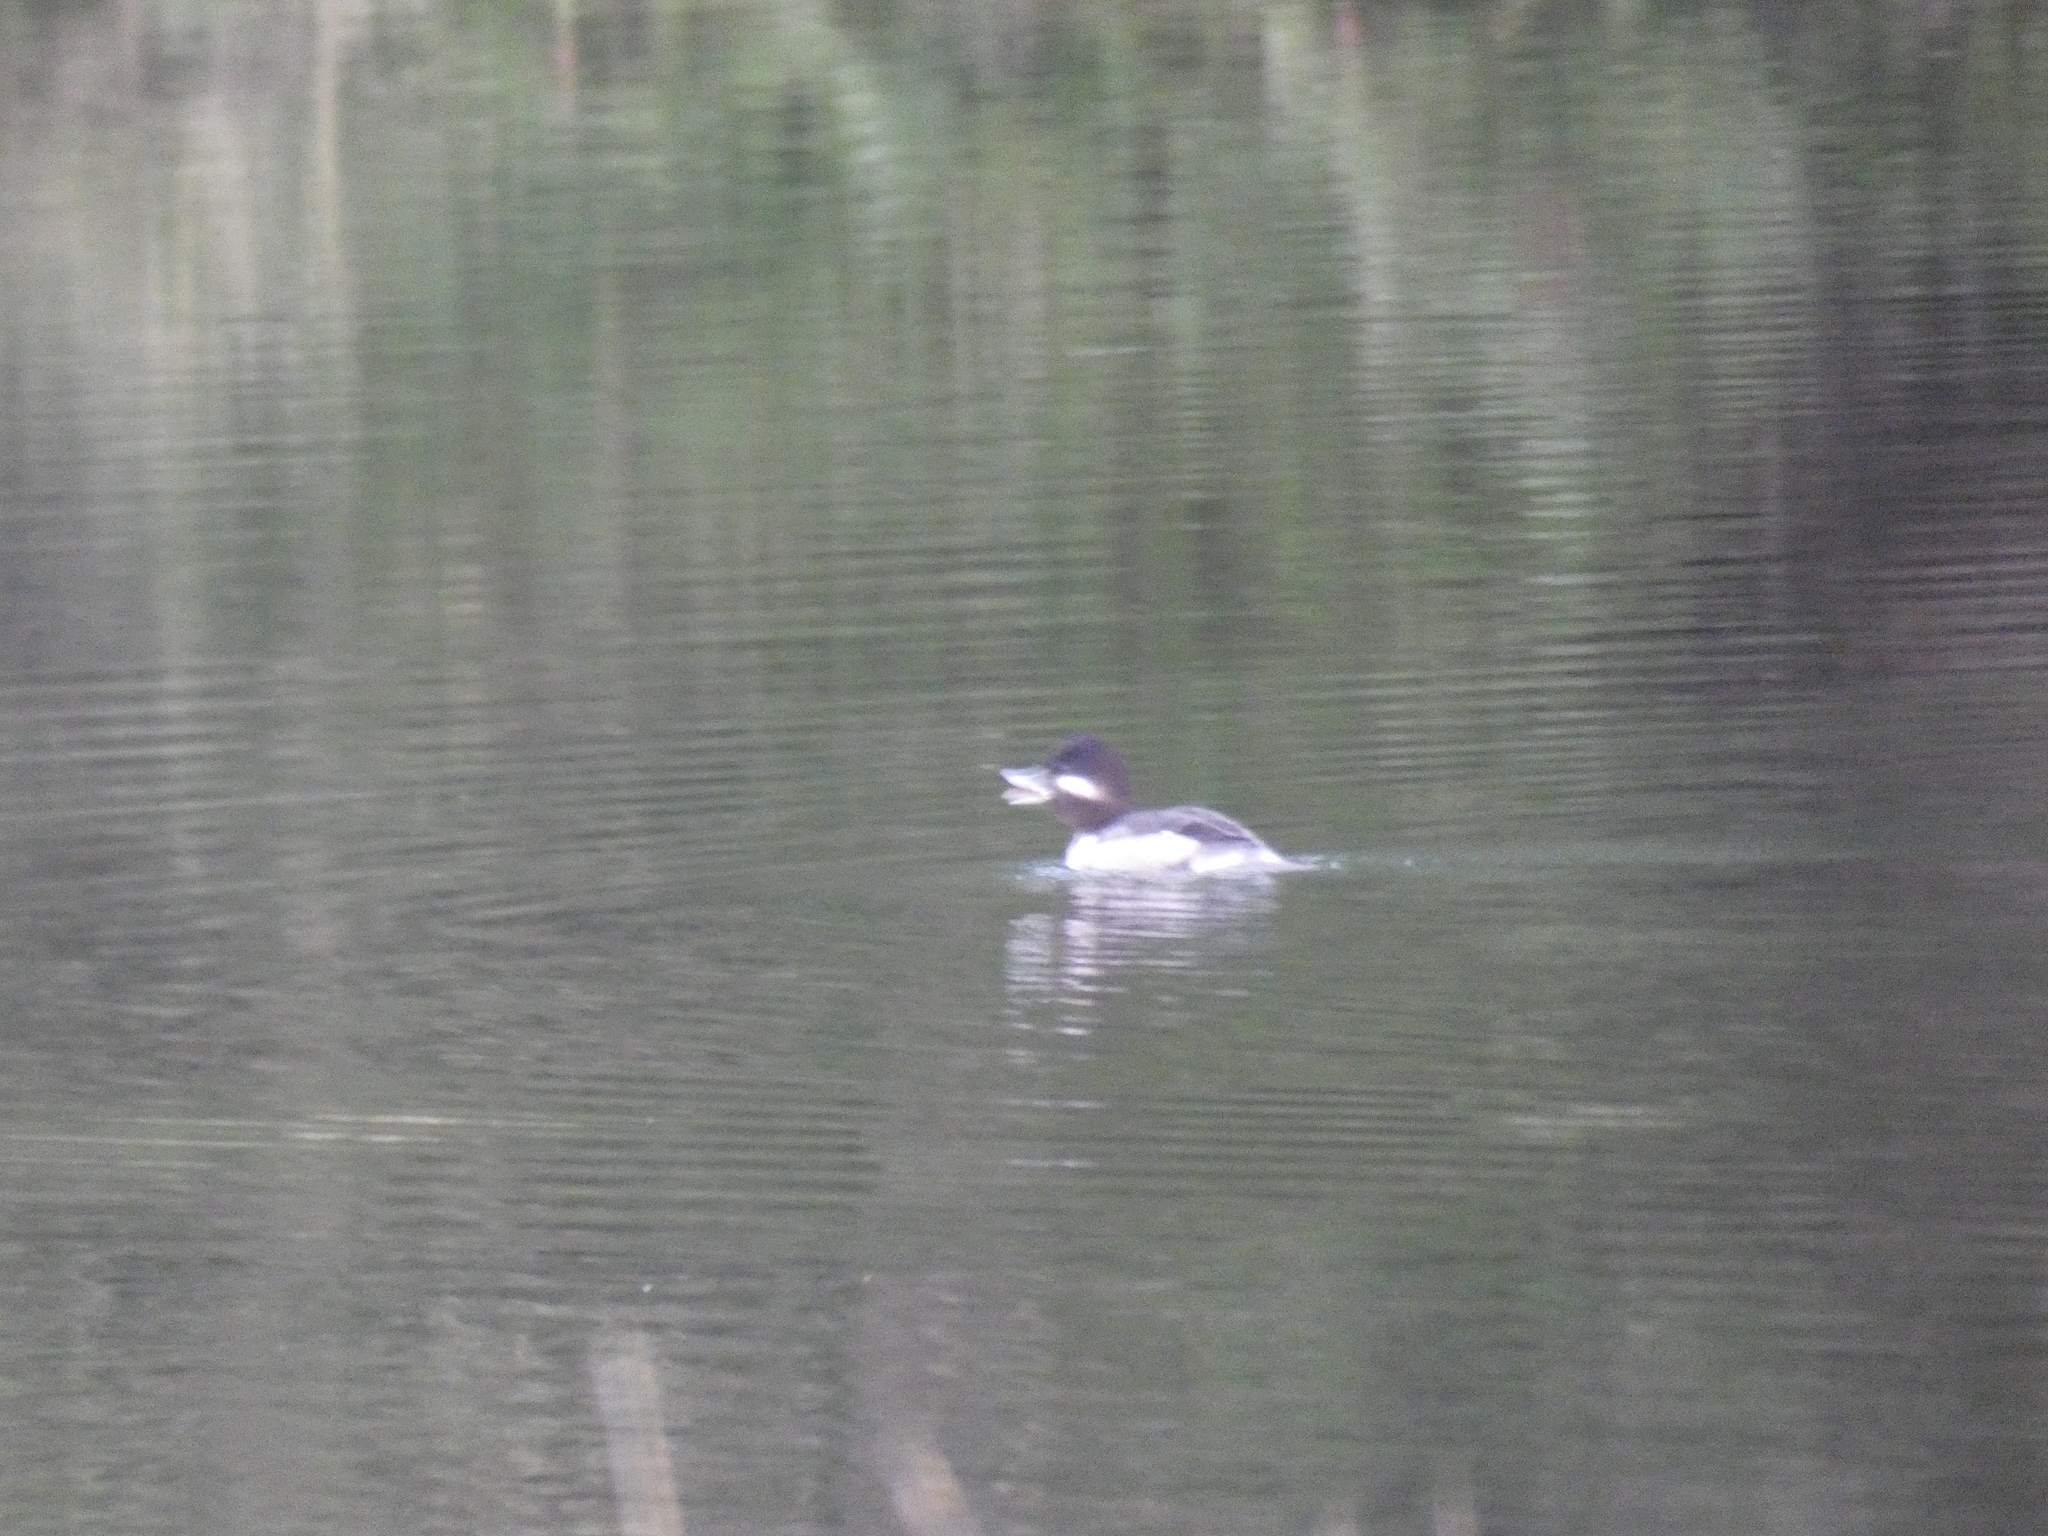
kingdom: Animalia
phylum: Chordata
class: Aves
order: Anseriformes
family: Anatidae
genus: Bucephala
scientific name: Bucephala albeola
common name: Bufflehead
